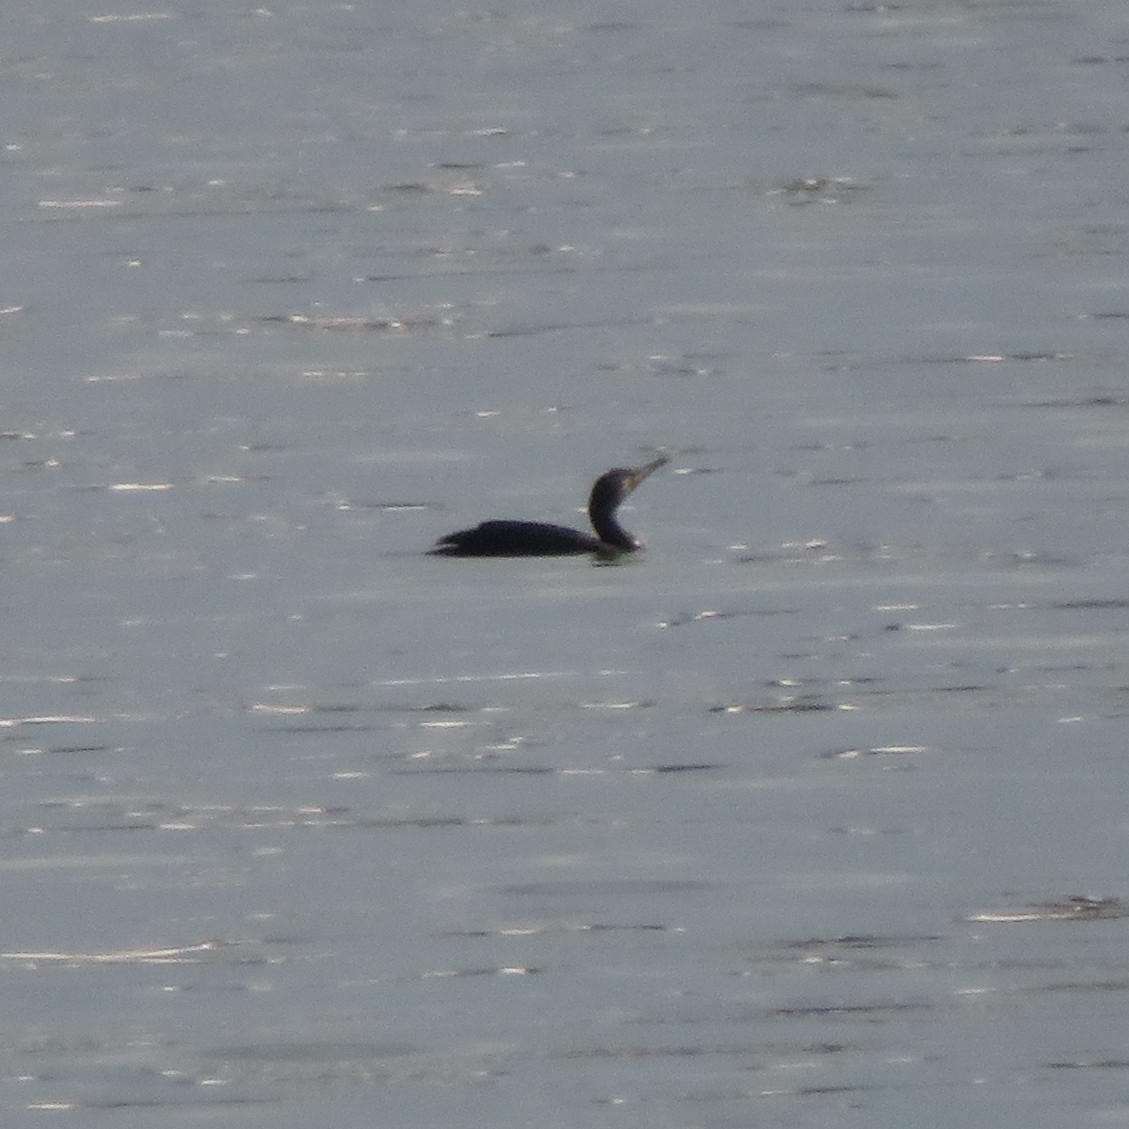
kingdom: Animalia
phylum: Chordata
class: Aves
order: Suliformes
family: Phalacrocoracidae
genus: Phalacrocorax
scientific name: Phalacrocorax carbo
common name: Great cormorant
